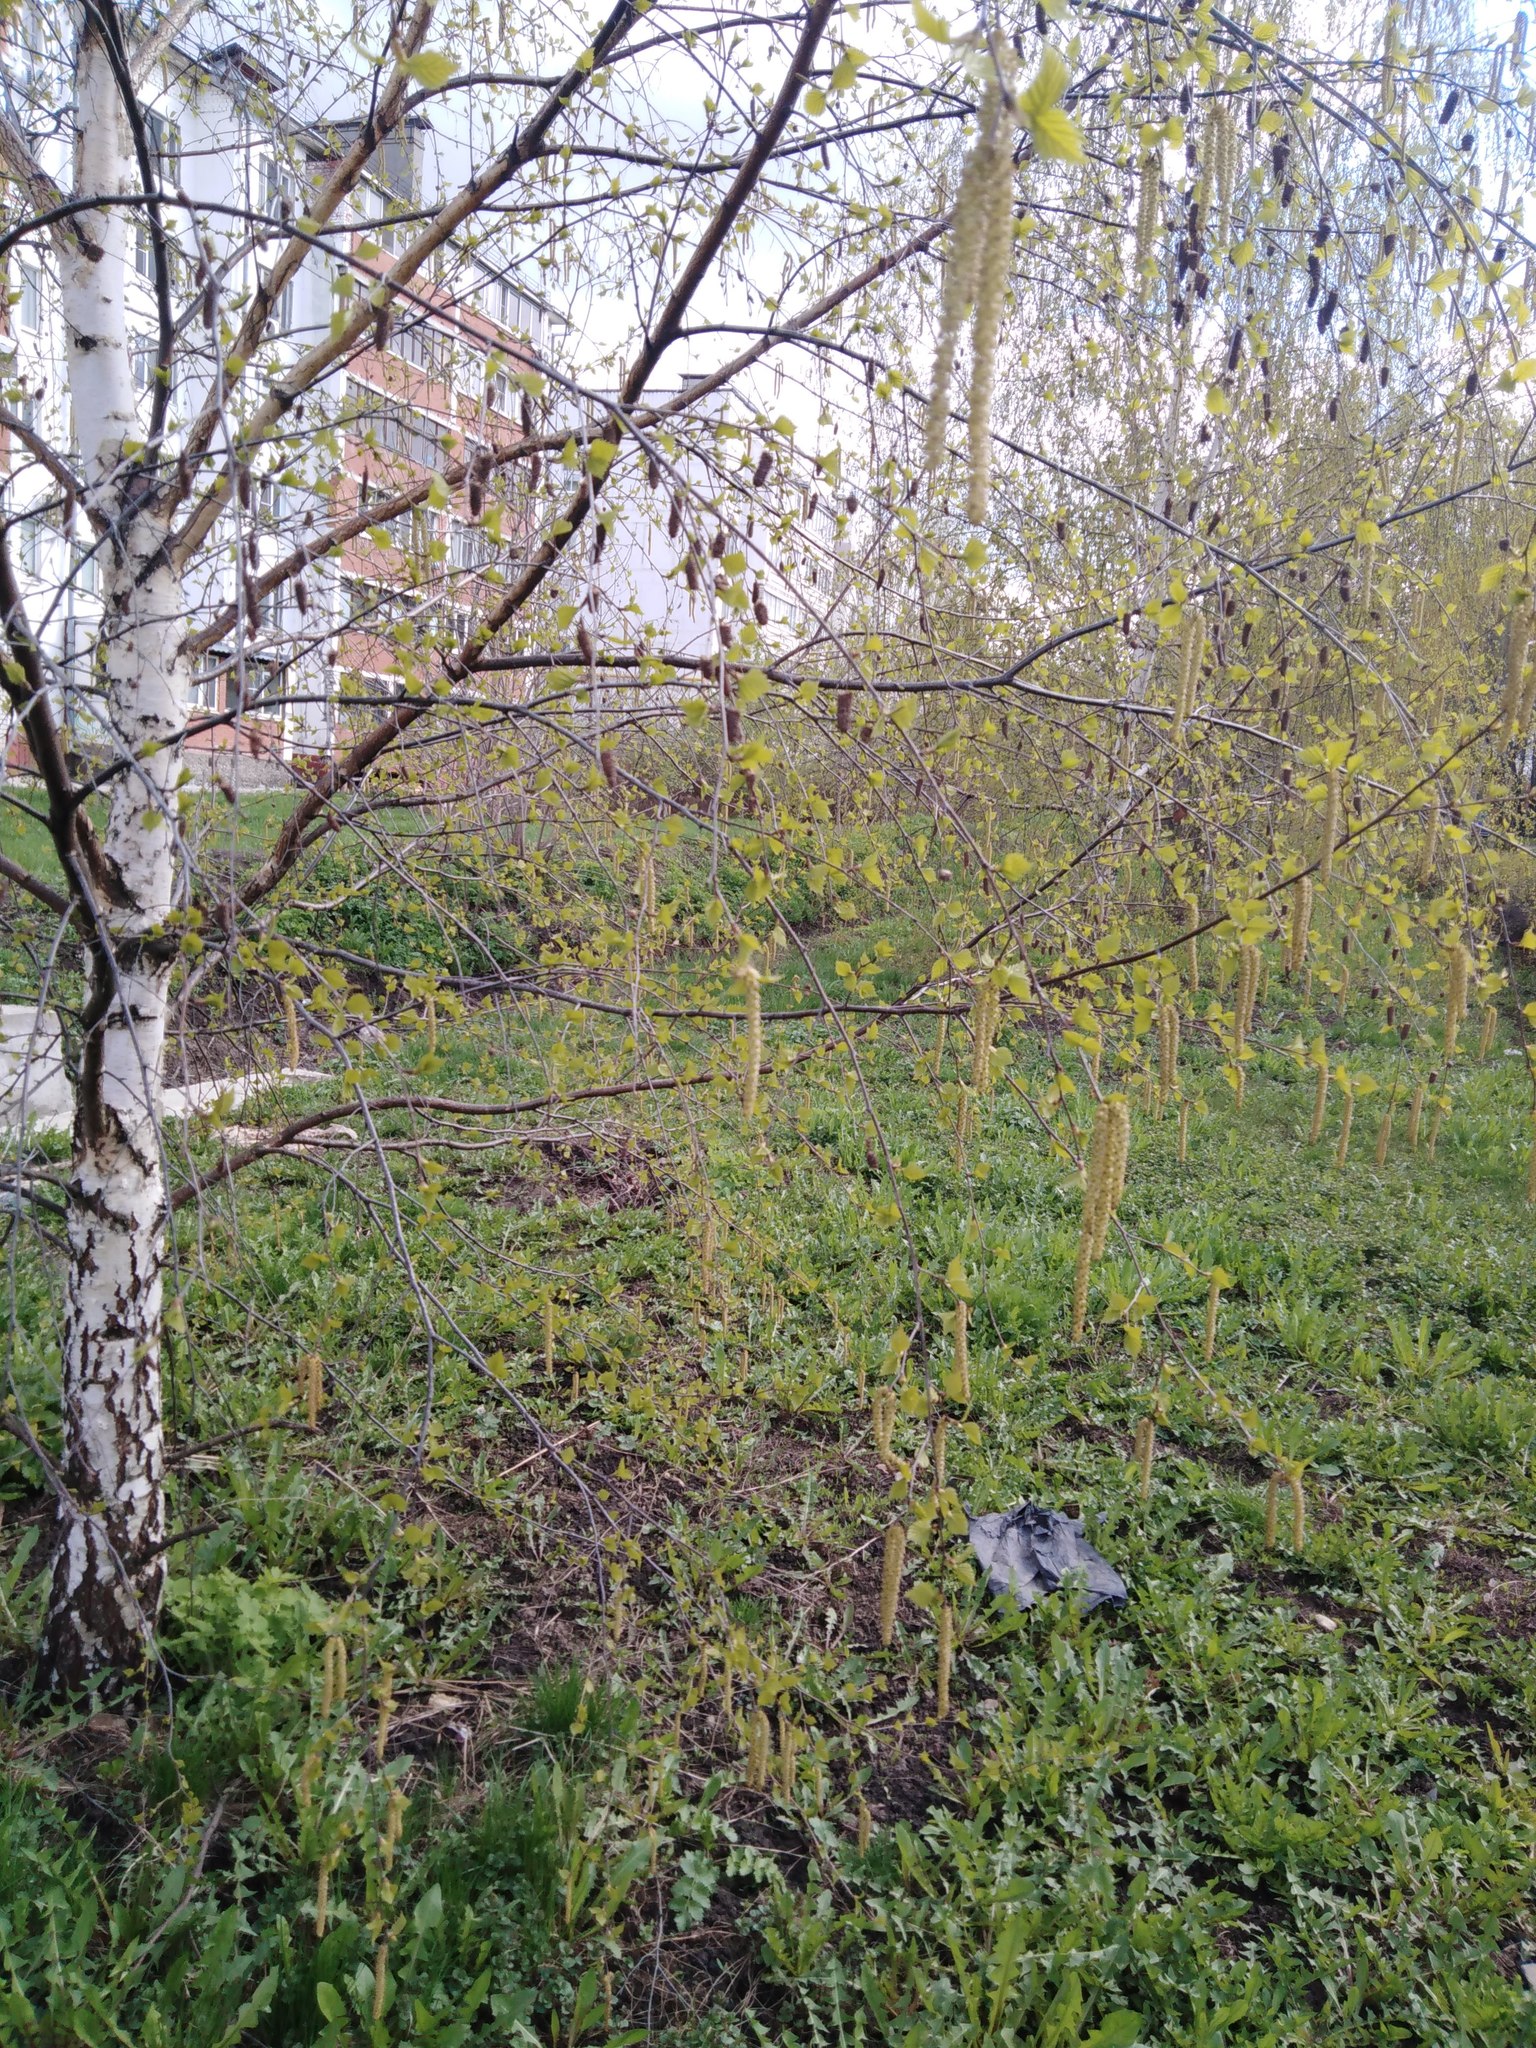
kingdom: Plantae
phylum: Tracheophyta
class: Magnoliopsida
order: Fagales
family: Betulaceae
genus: Betula
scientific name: Betula pendula
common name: Silver birch
